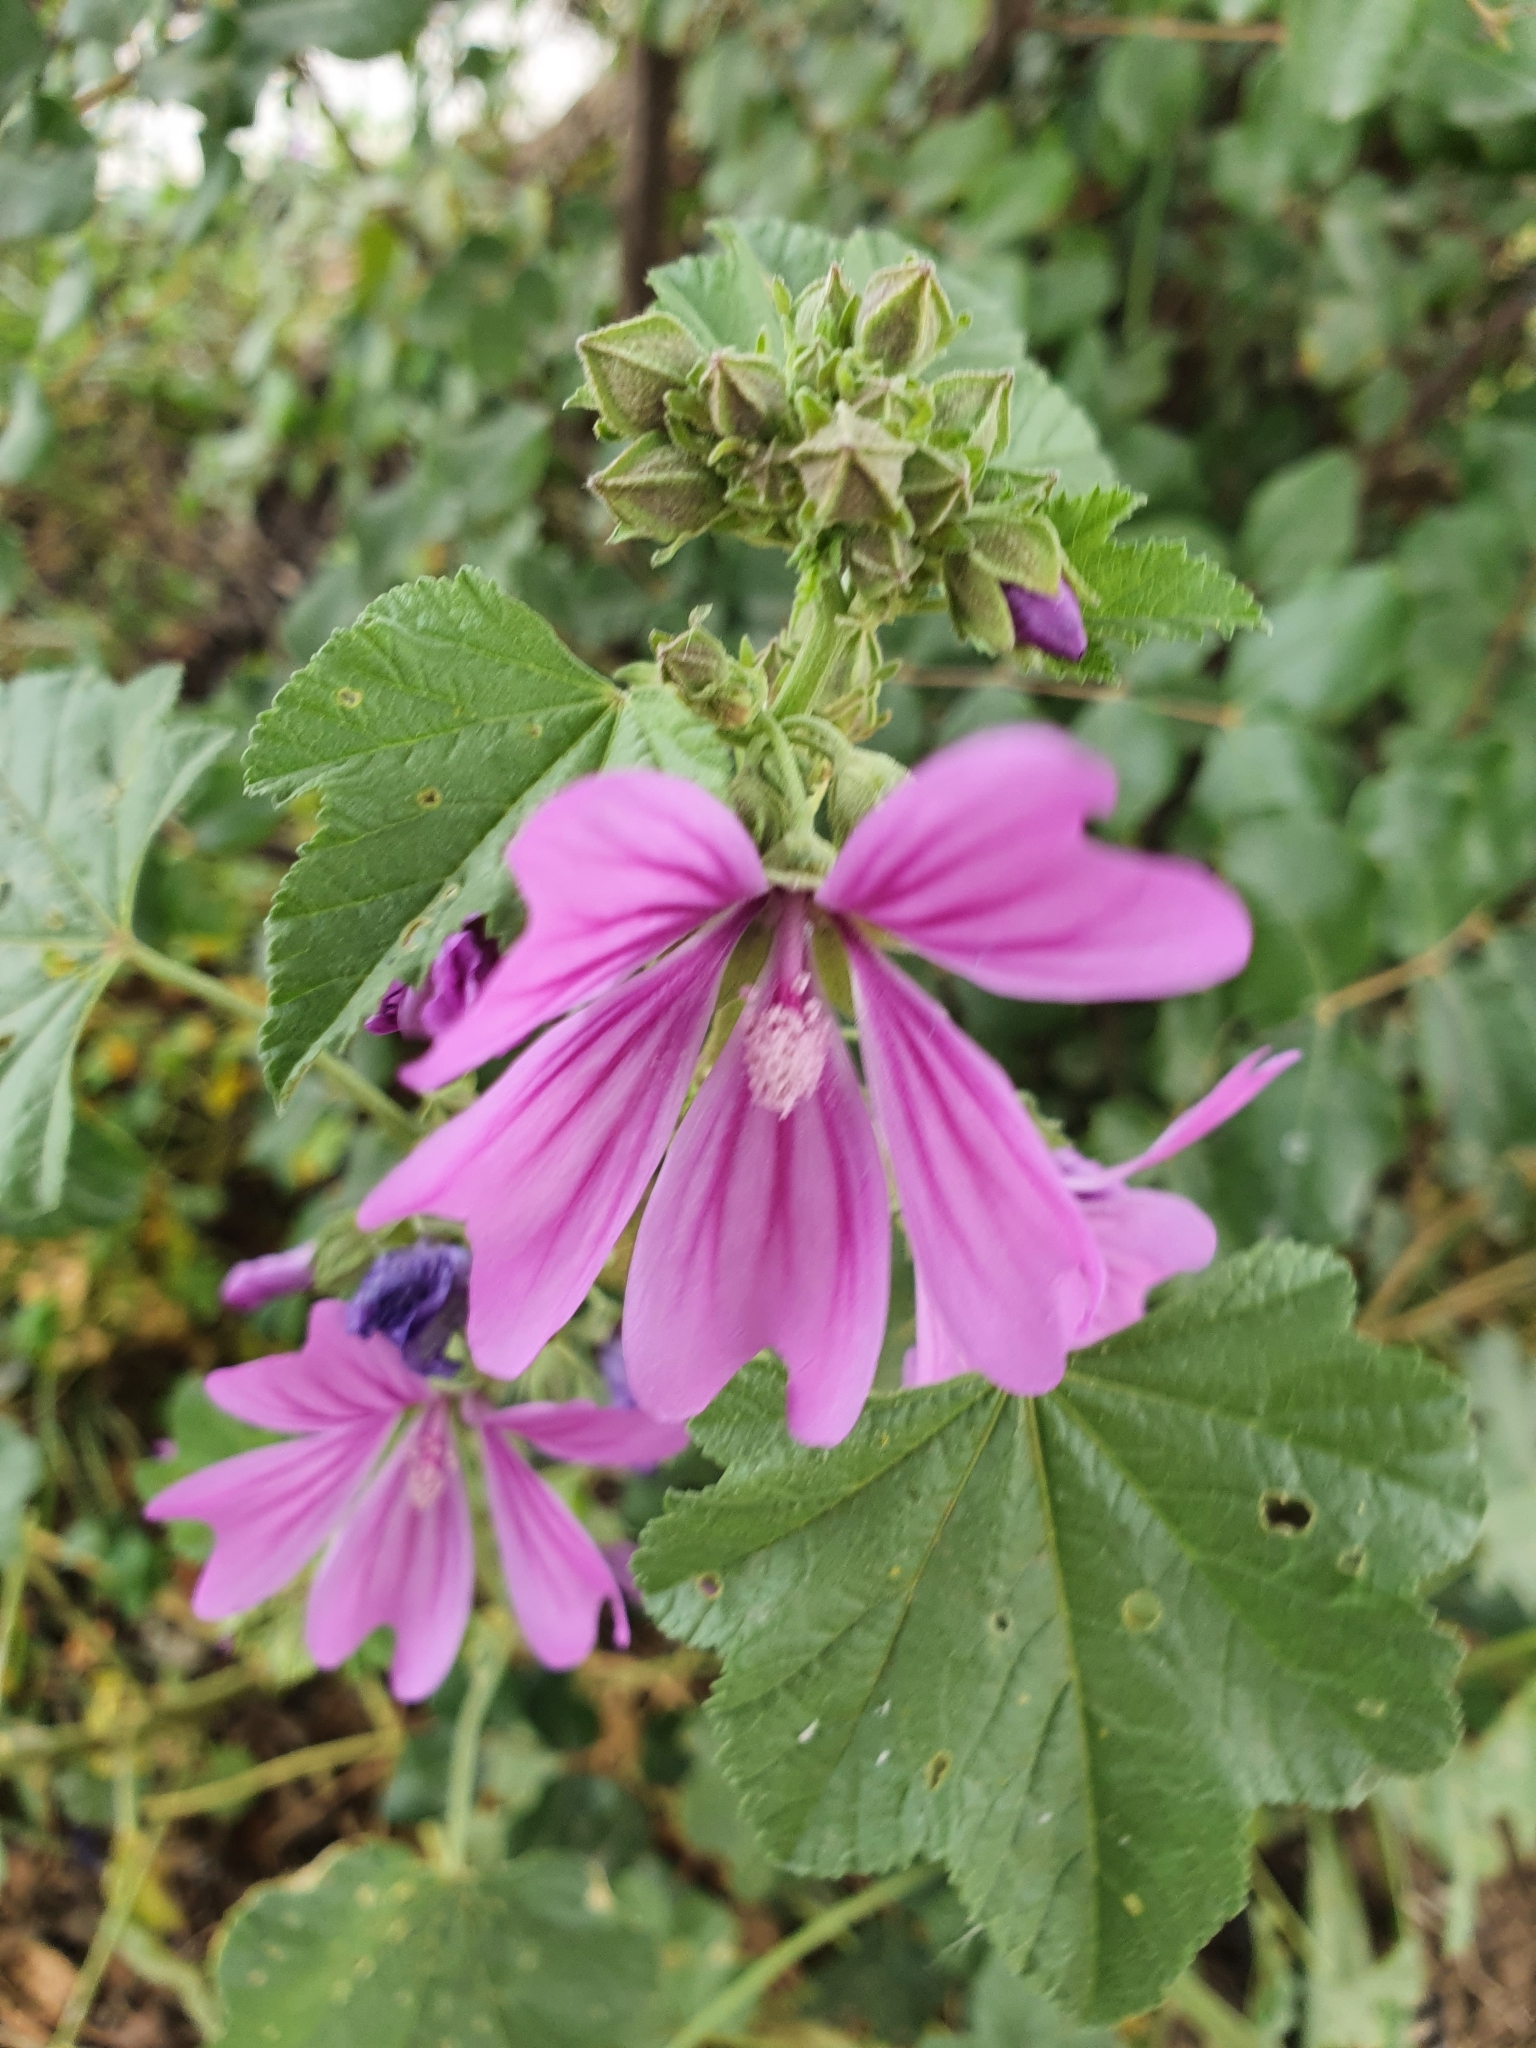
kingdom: Plantae
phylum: Tracheophyta
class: Magnoliopsida
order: Malvales
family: Malvaceae
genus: Malva
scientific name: Malva sylvestris
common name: Common mallow
